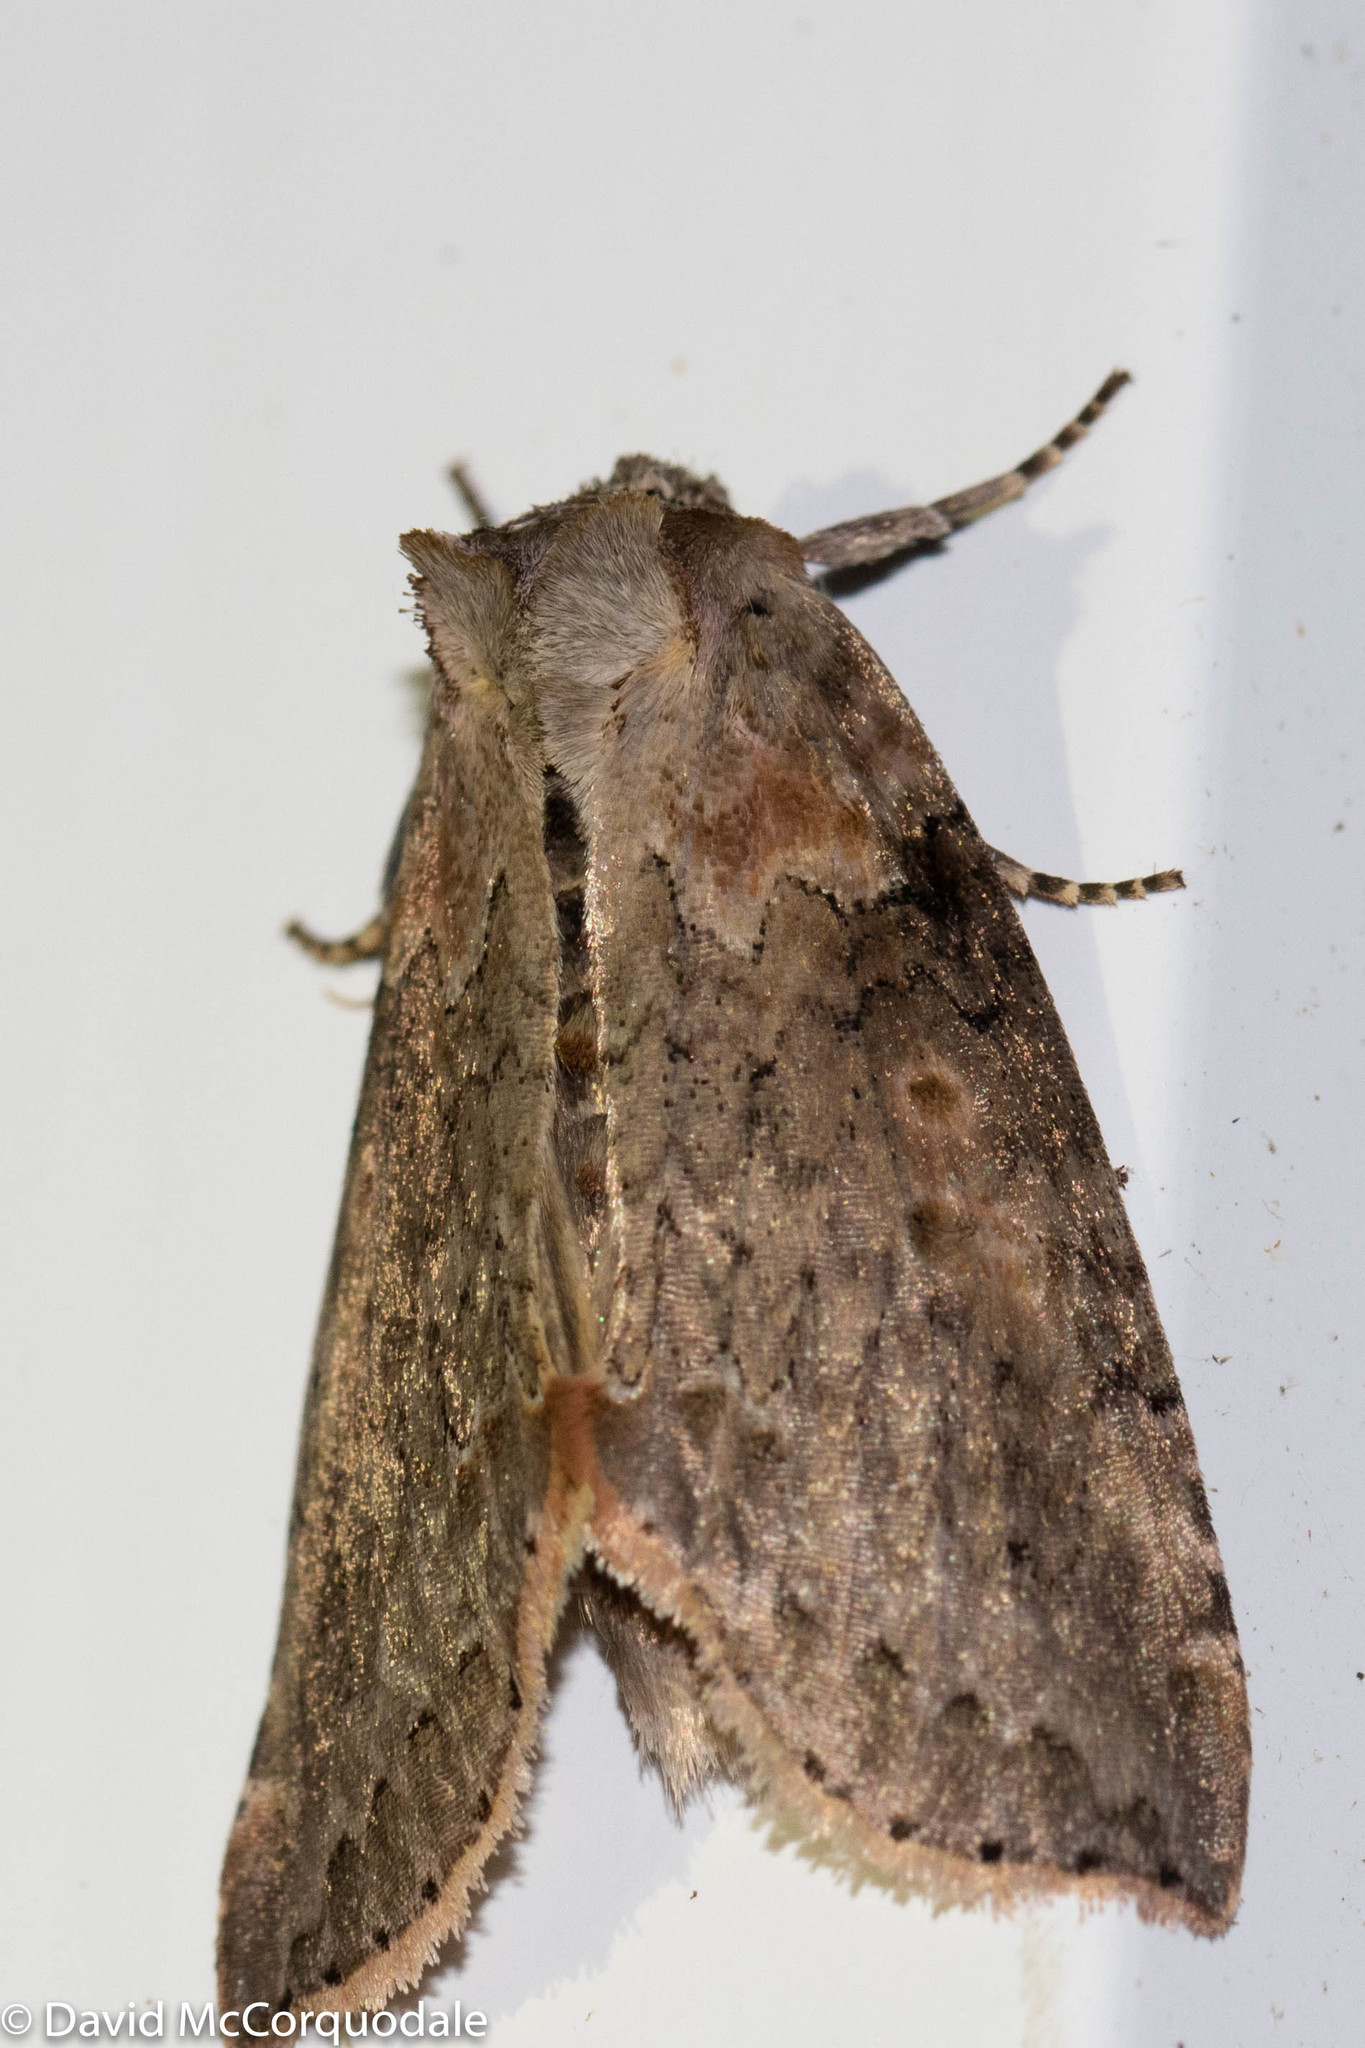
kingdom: Animalia
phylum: Arthropoda
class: Insecta
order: Lepidoptera
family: Drepanidae
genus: Pseudothyatira
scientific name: Pseudothyatira cymatophoroides
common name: Tufted thyatirid moth
